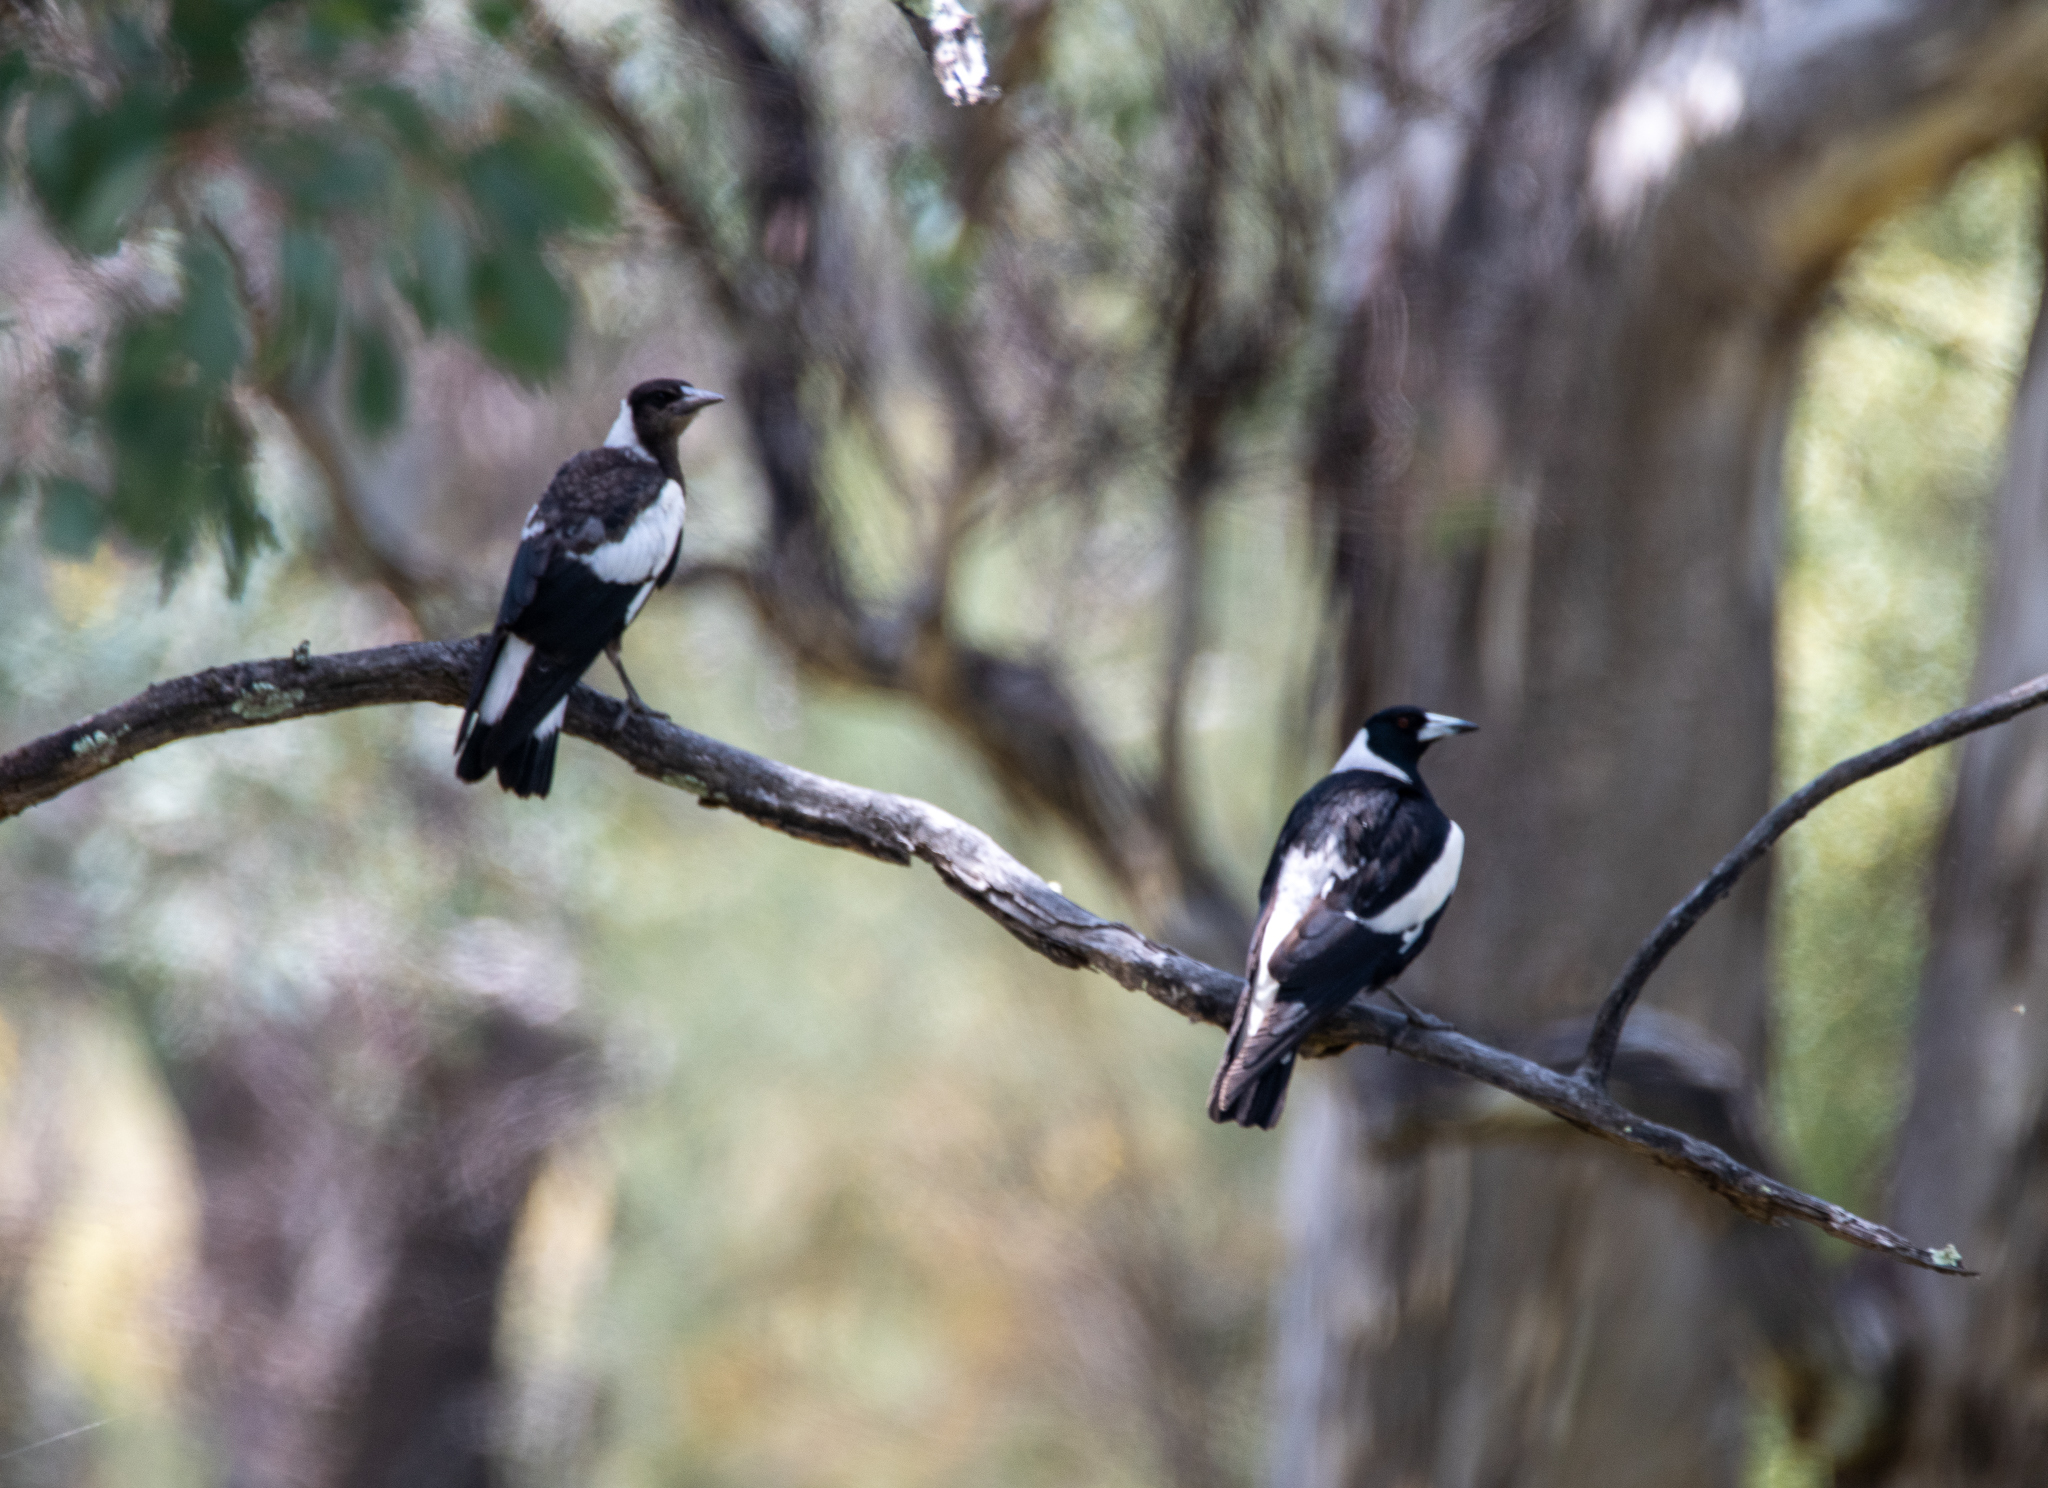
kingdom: Animalia
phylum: Chordata
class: Aves
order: Passeriformes
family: Cracticidae
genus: Gymnorhina
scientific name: Gymnorhina tibicen
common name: Australian magpie
